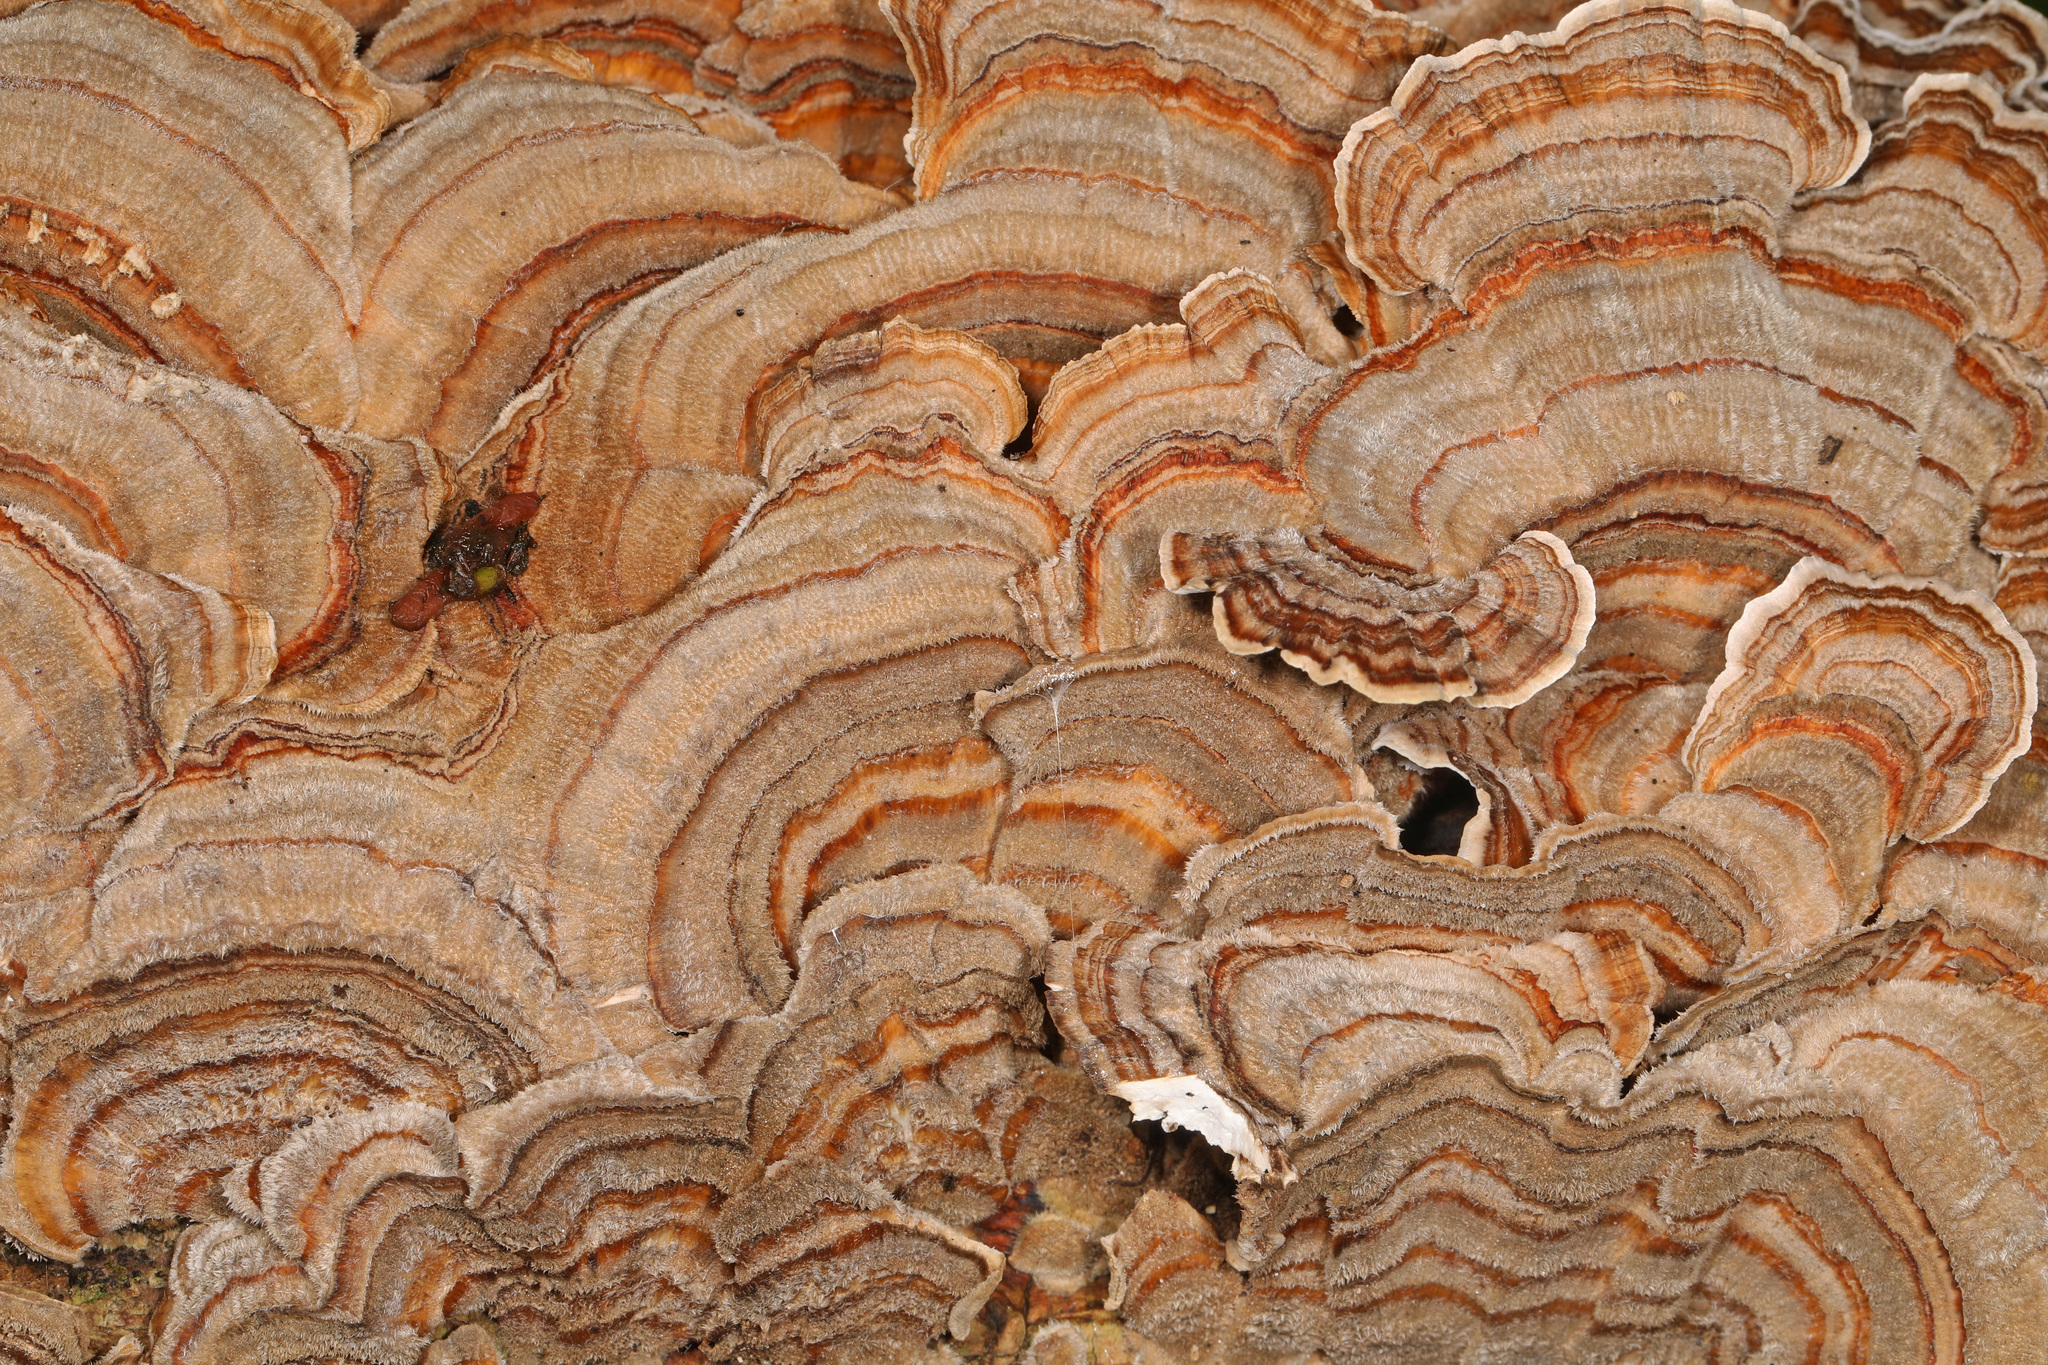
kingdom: Fungi
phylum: Basidiomycota
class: Agaricomycetes
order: Polyporales
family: Polyporaceae
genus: Trametes
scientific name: Trametes versicolor
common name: Turkeytail
